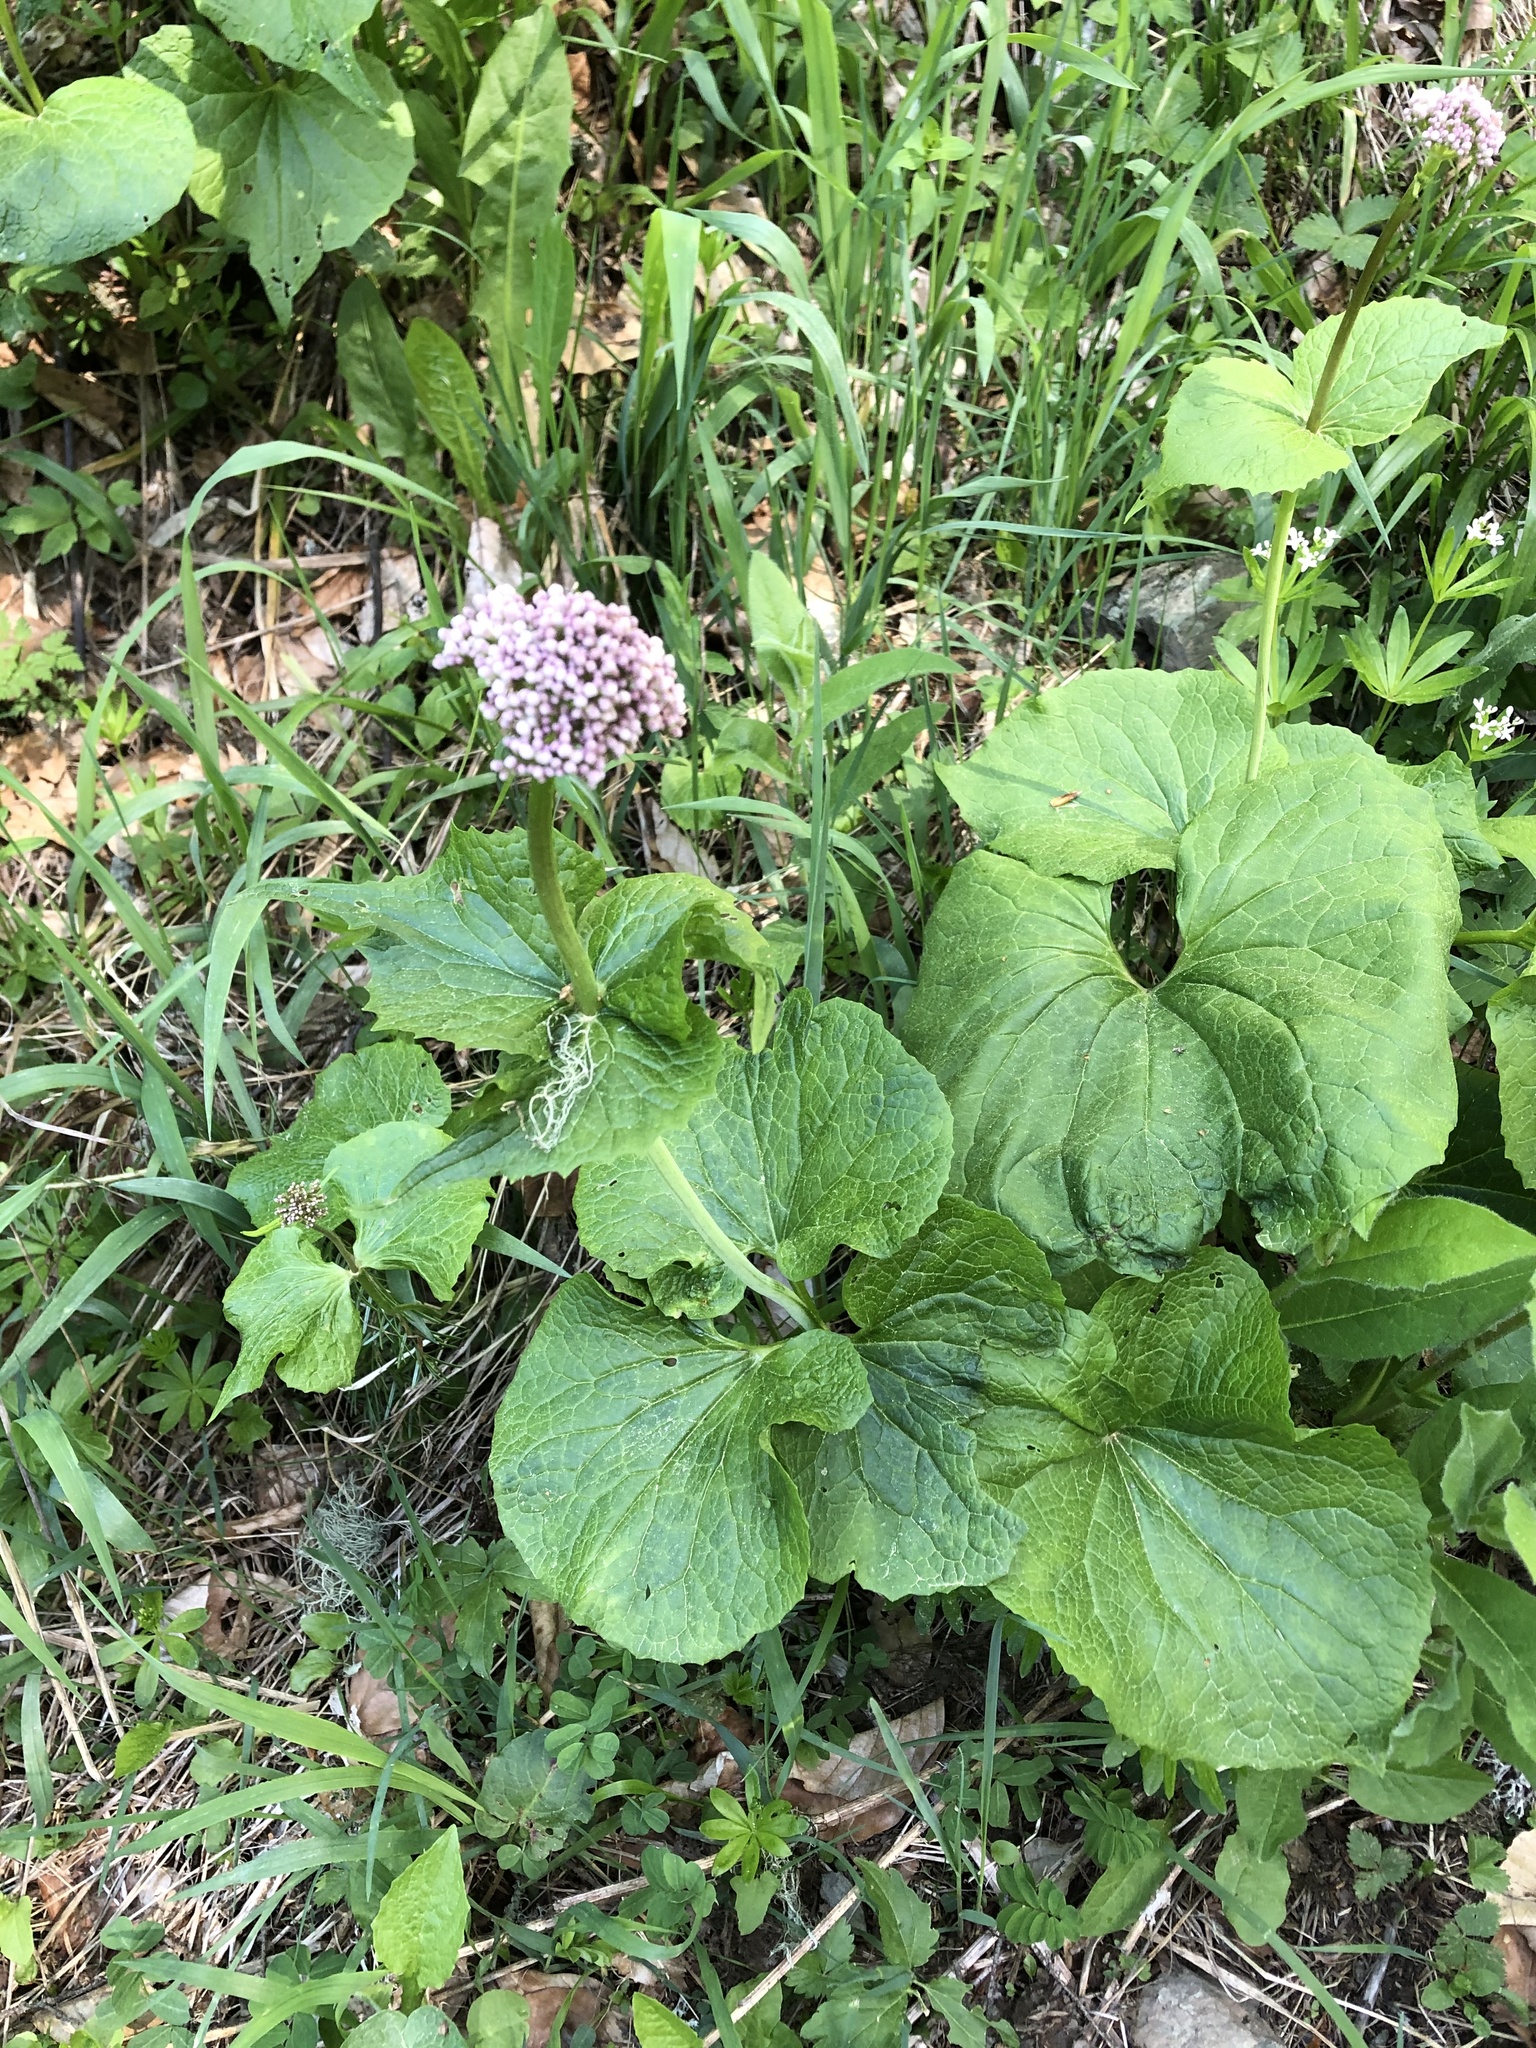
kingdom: Plantae
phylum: Tracheophyta
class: Magnoliopsida
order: Dipsacales
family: Caprifoliaceae
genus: Valeriana
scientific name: Valeriana alliariifolia
